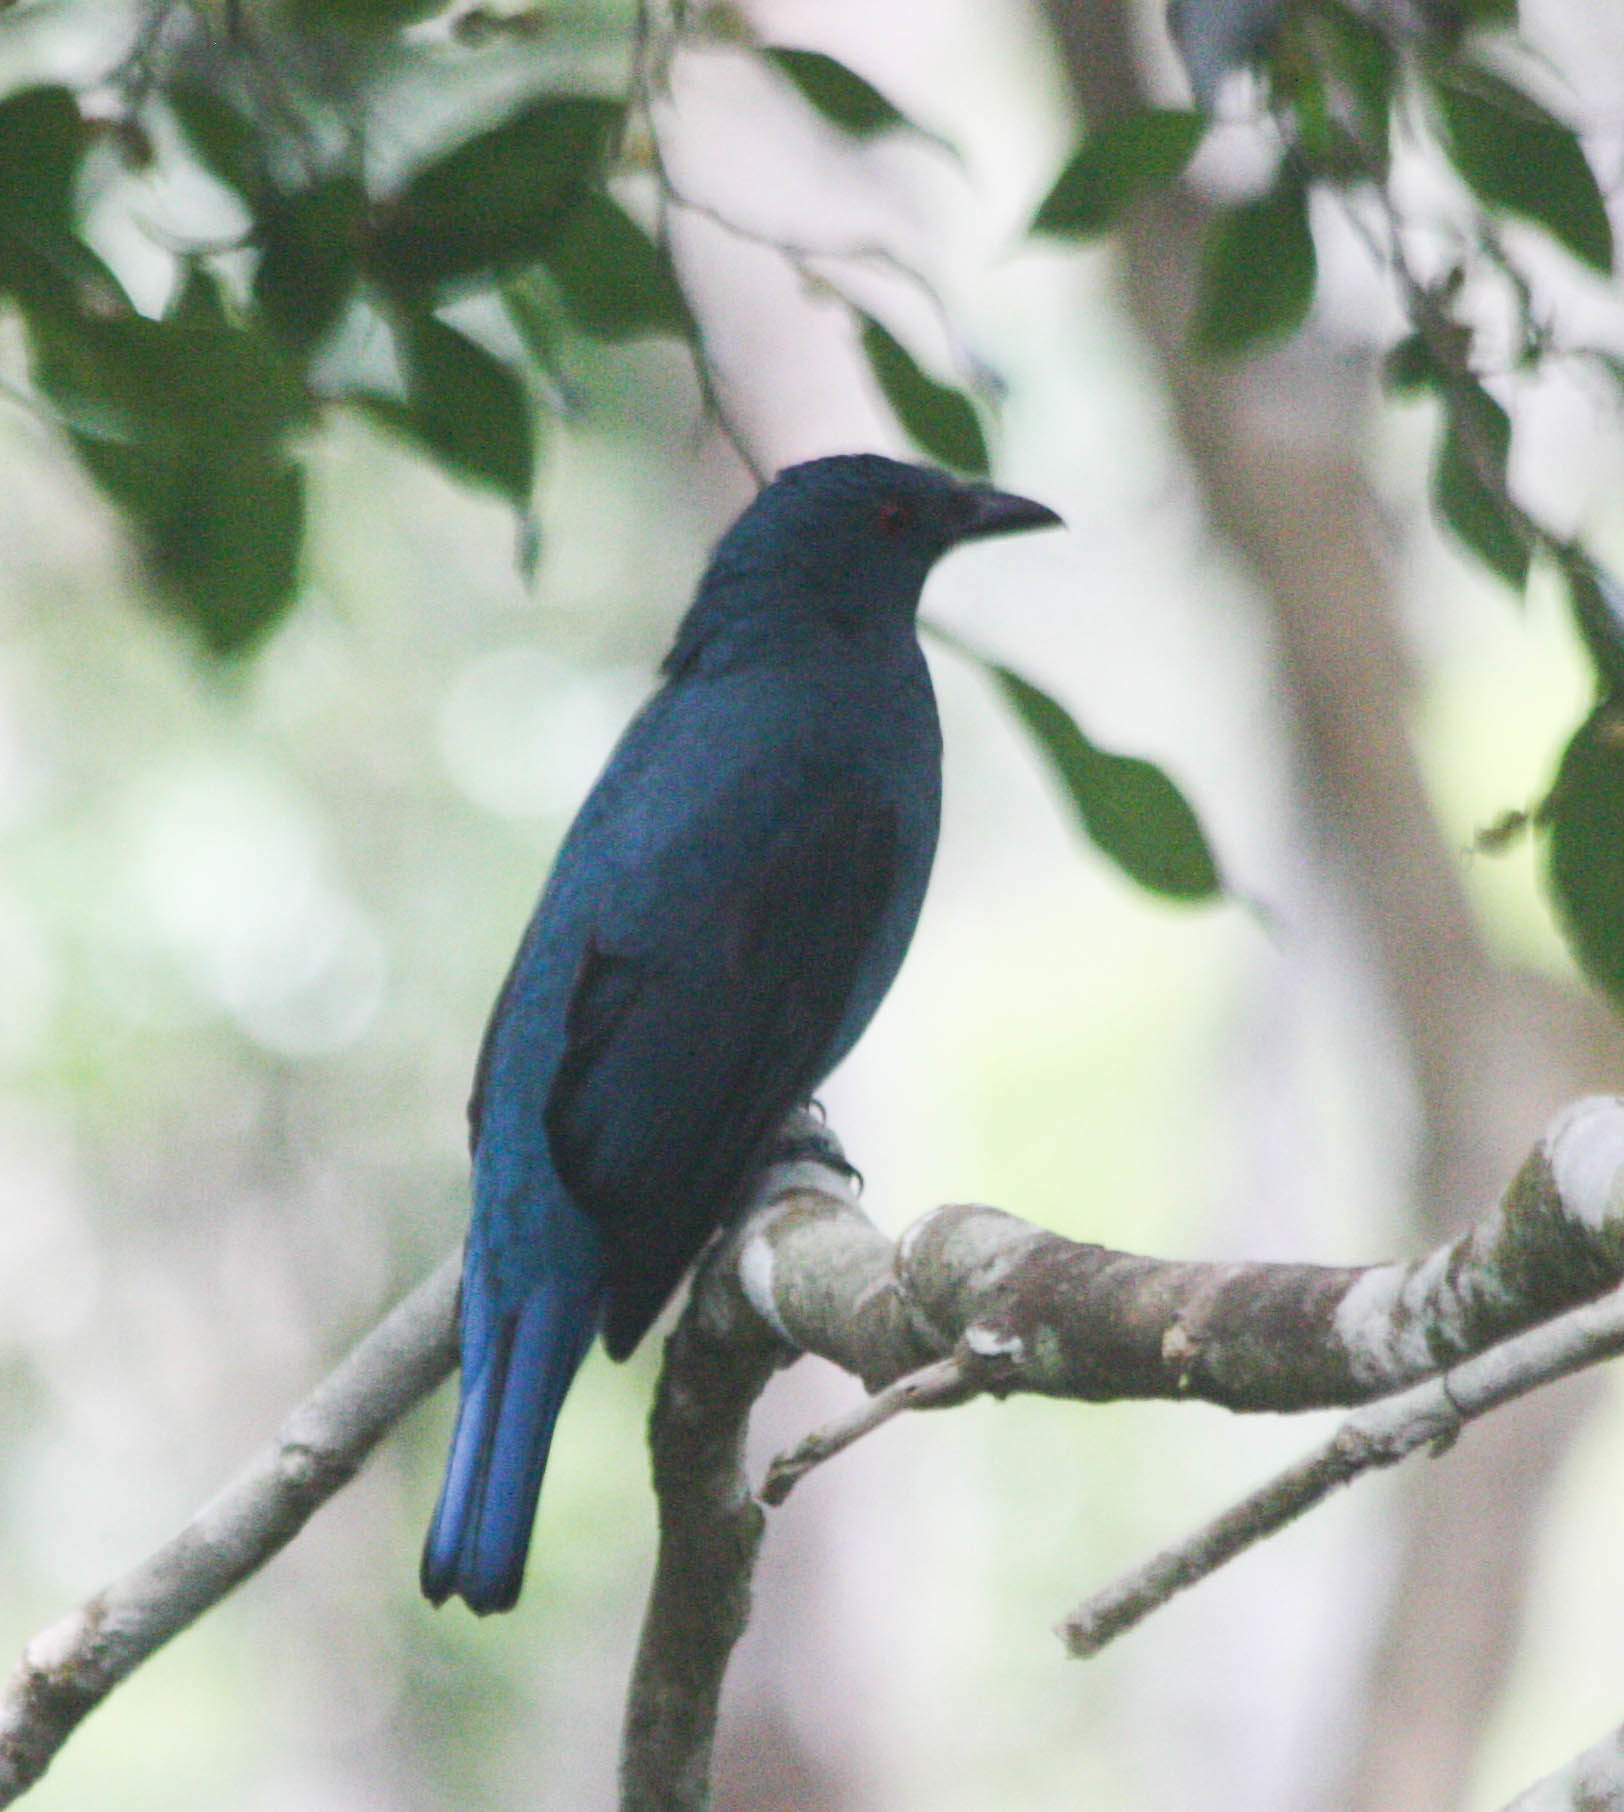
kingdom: Animalia
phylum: Chordata
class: Aves
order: Passeriformes
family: Irenidae
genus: Irena
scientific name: Irena puella
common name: Asian fairy-bluebird
